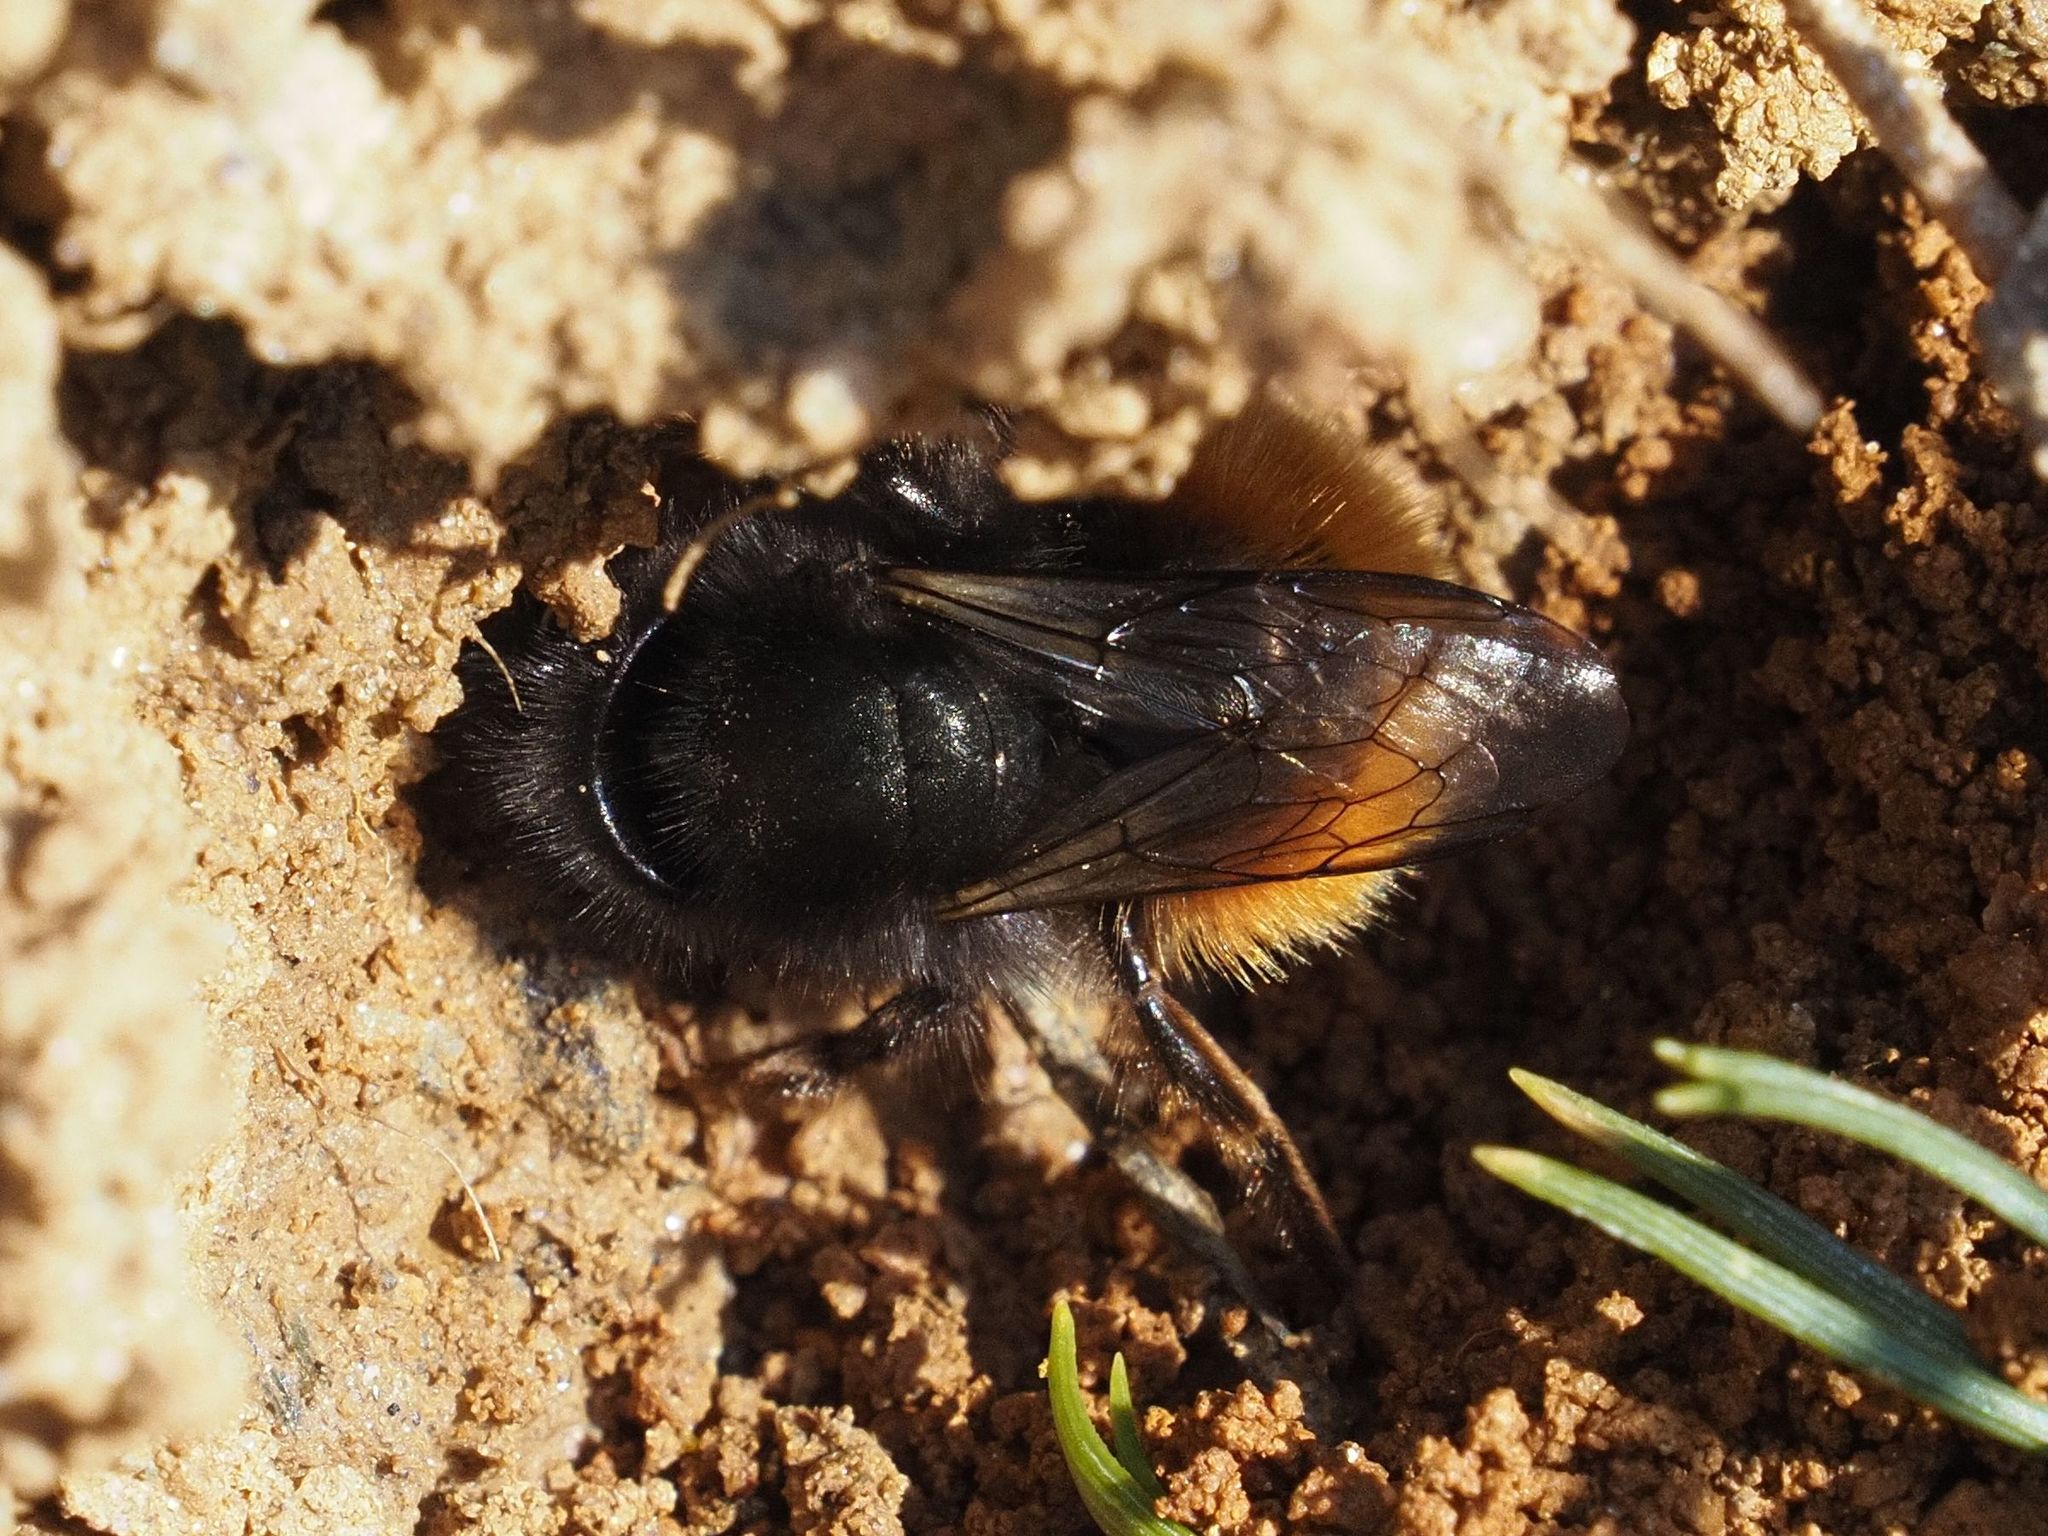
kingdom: Animalia
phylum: Arthropoda
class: Insecta
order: Hymenoptera
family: Megachilidae
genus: Osmia
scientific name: Osmia cornuta
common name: Mason bee
